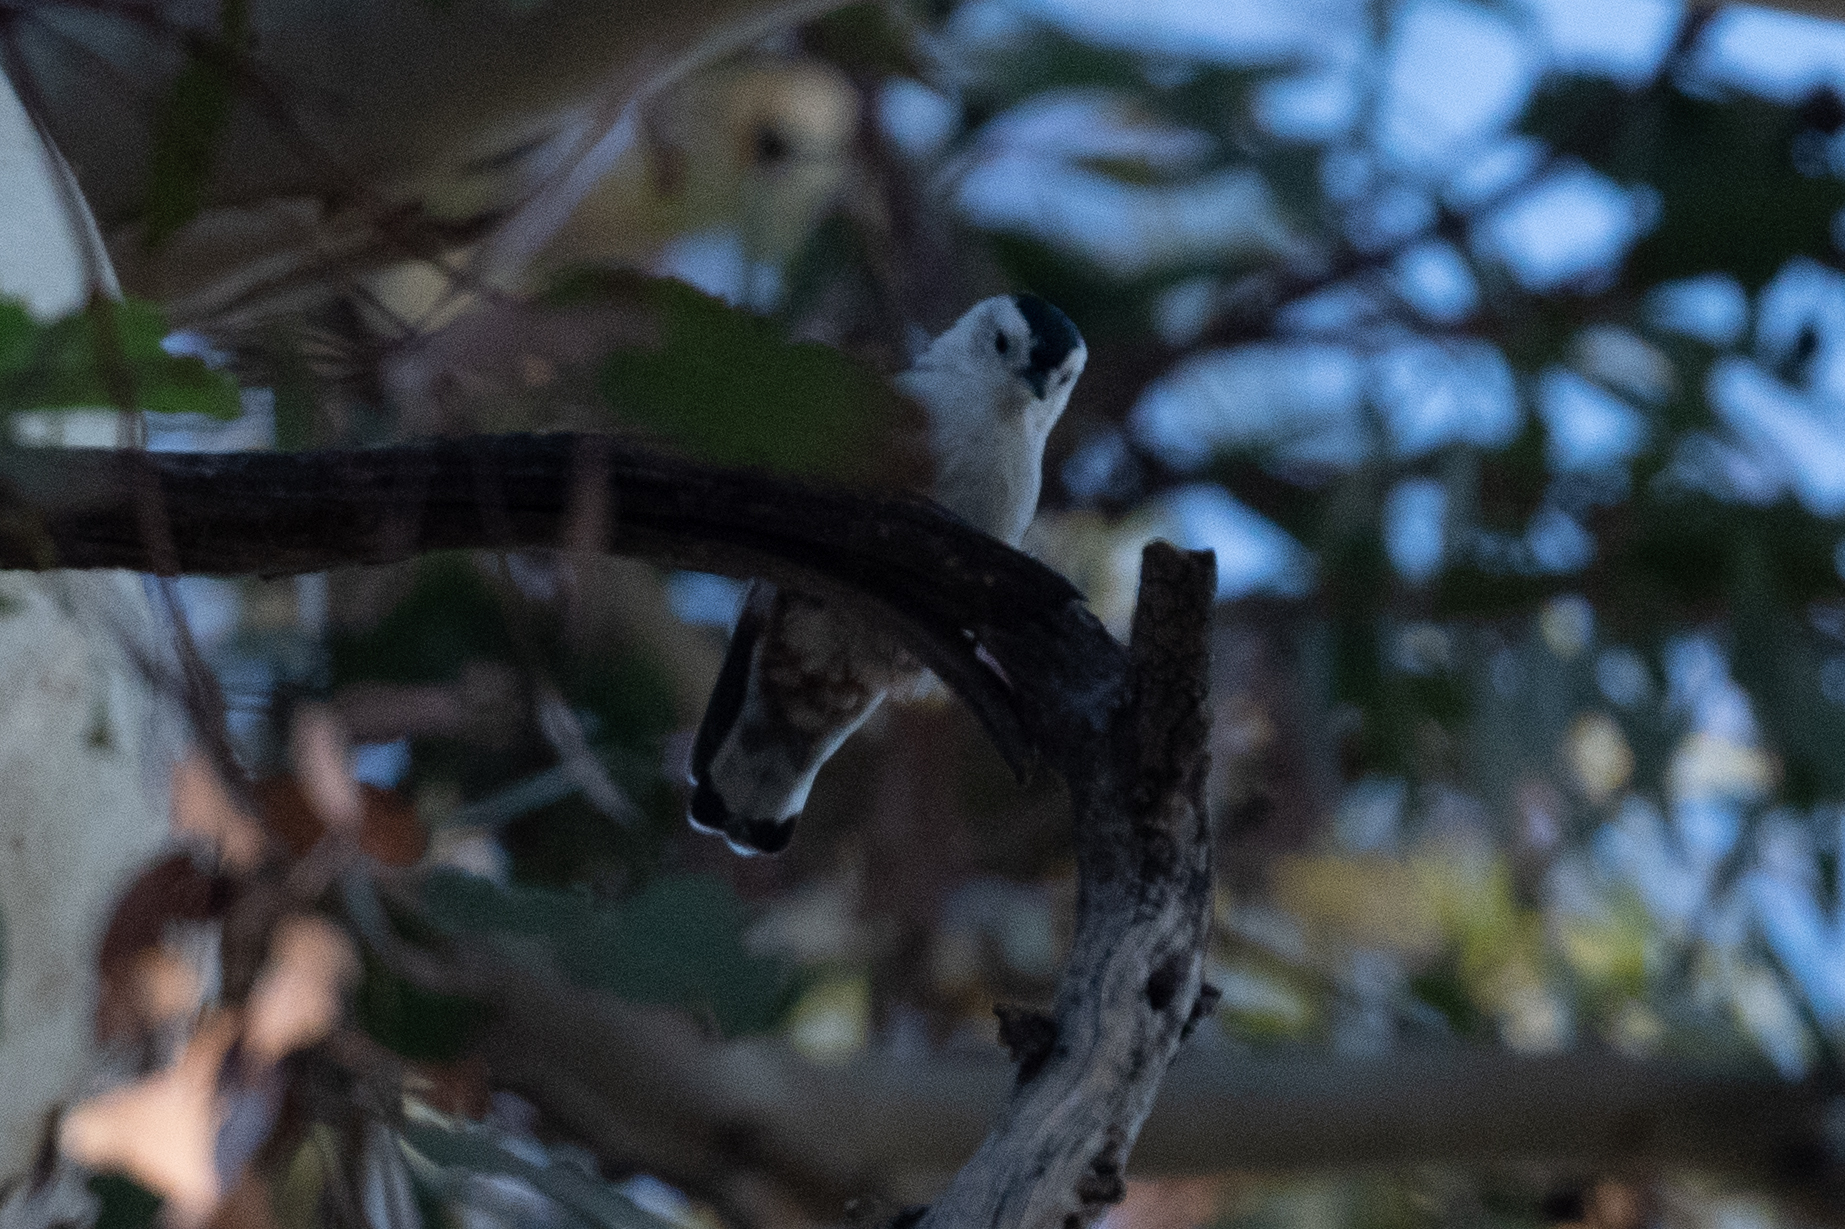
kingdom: Animalia
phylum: Chordata
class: Aves
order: Passeriformes
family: Sittidae
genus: Sitta
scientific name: Sitta carolinensis
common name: White-breasted nuthatch
